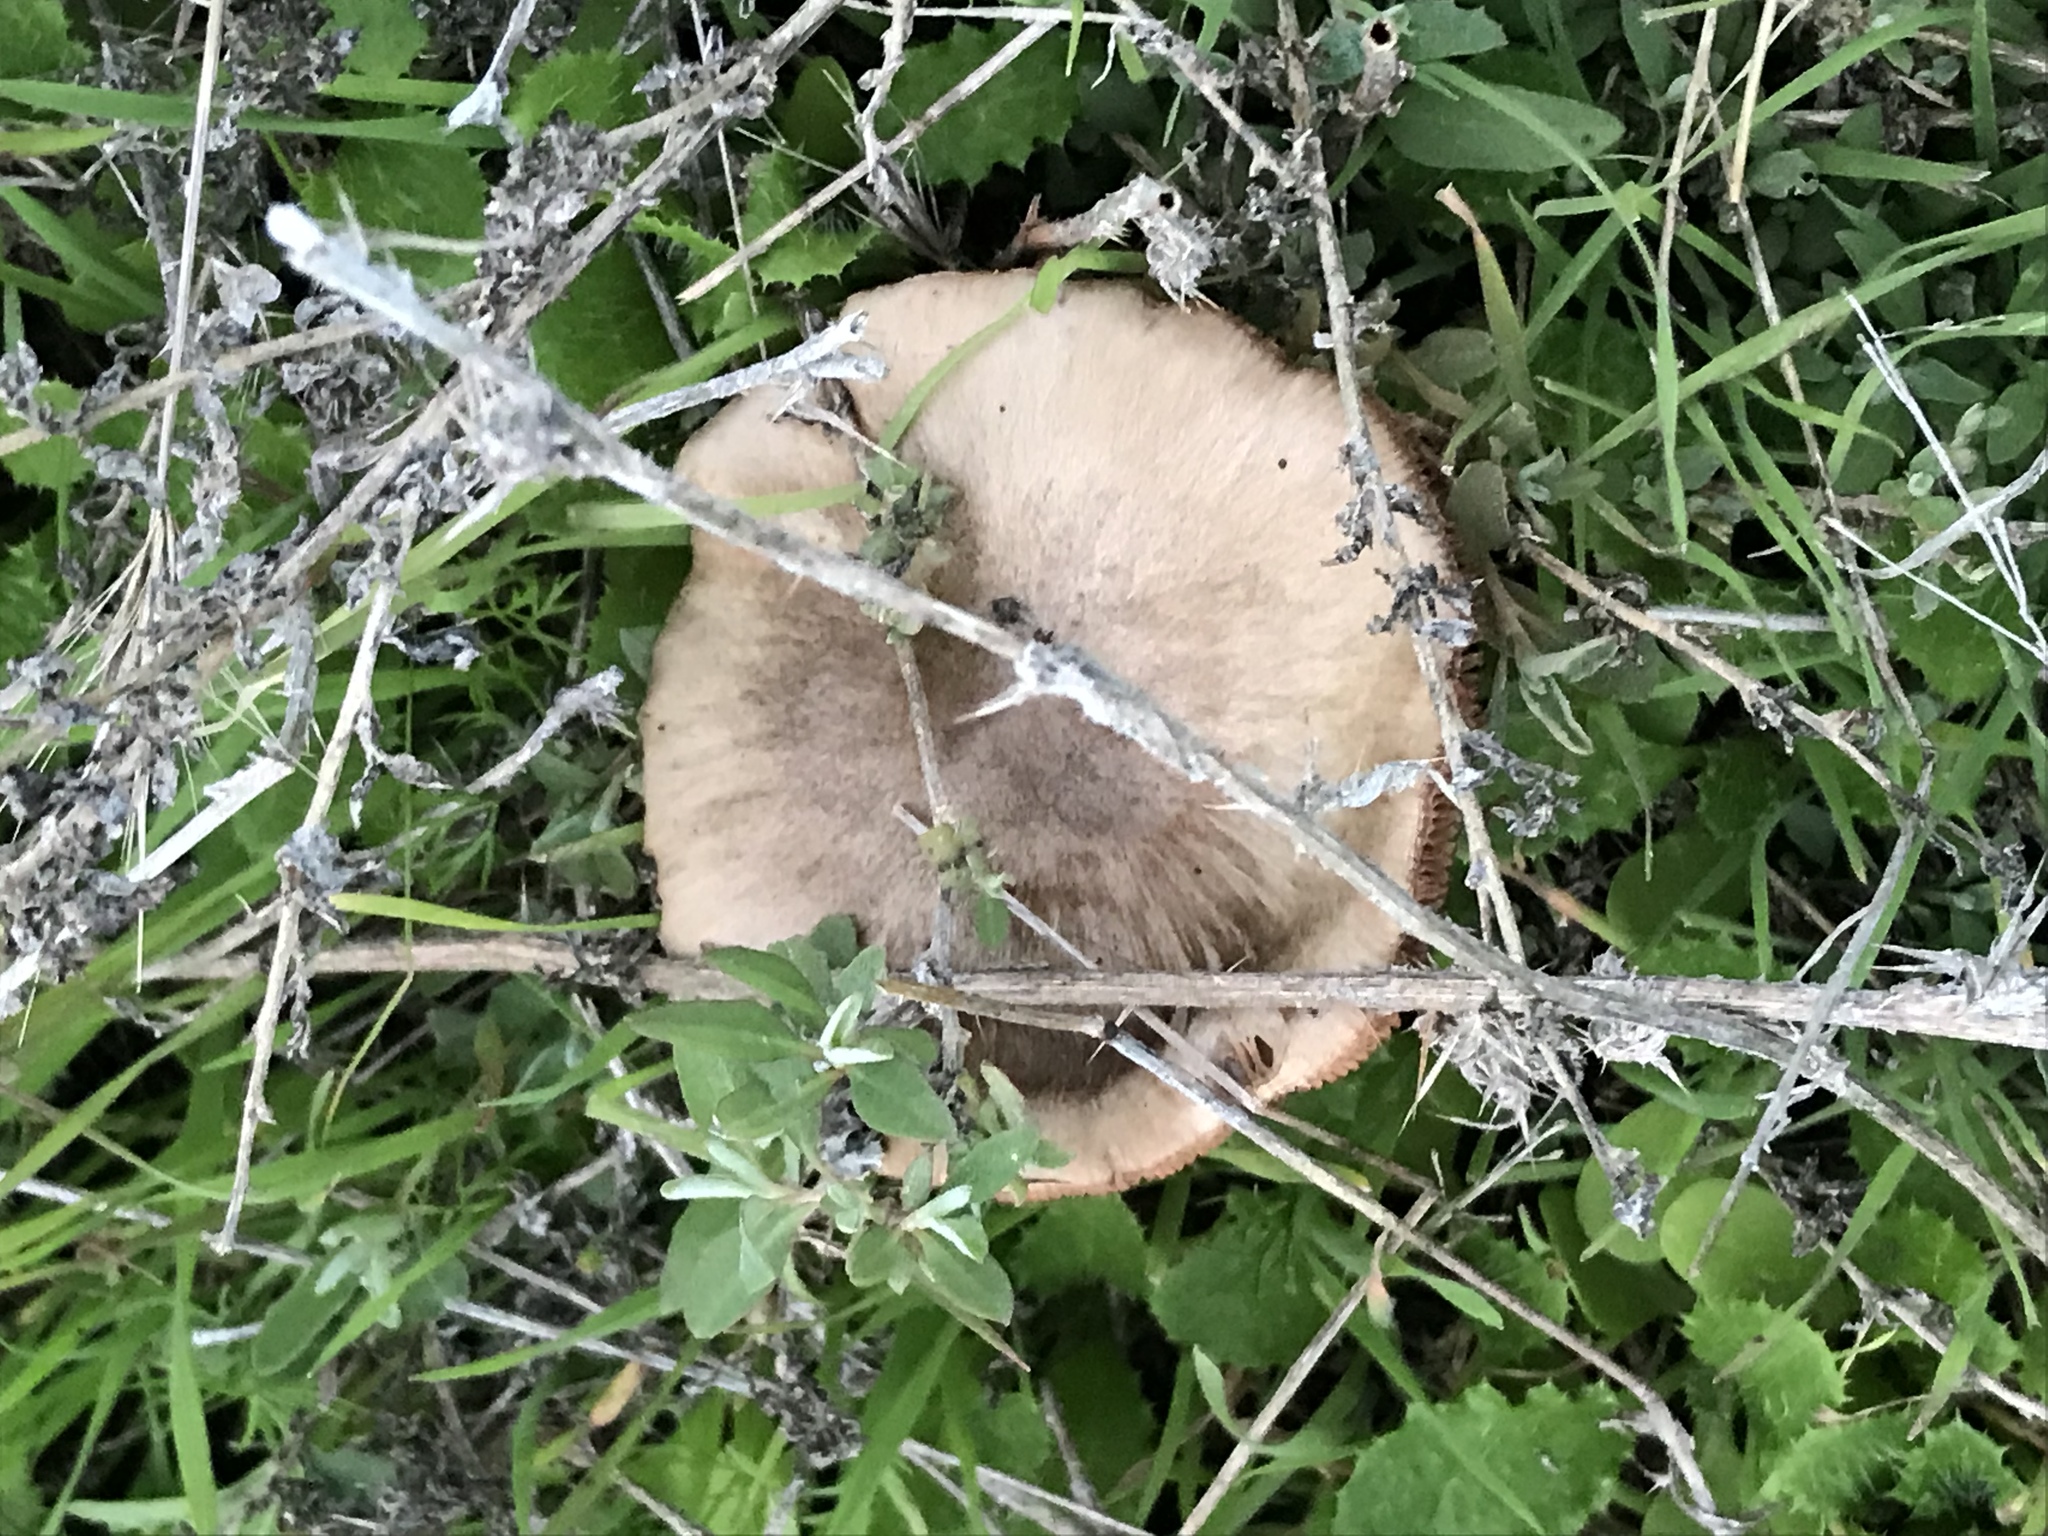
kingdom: Fungi
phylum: Basidiomycota
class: Agaricomycetes
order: Agaricales
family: Pluteaceae
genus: Volvopluteus
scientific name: Volvopluteus gloiocephalus
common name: Stubble rosegill
